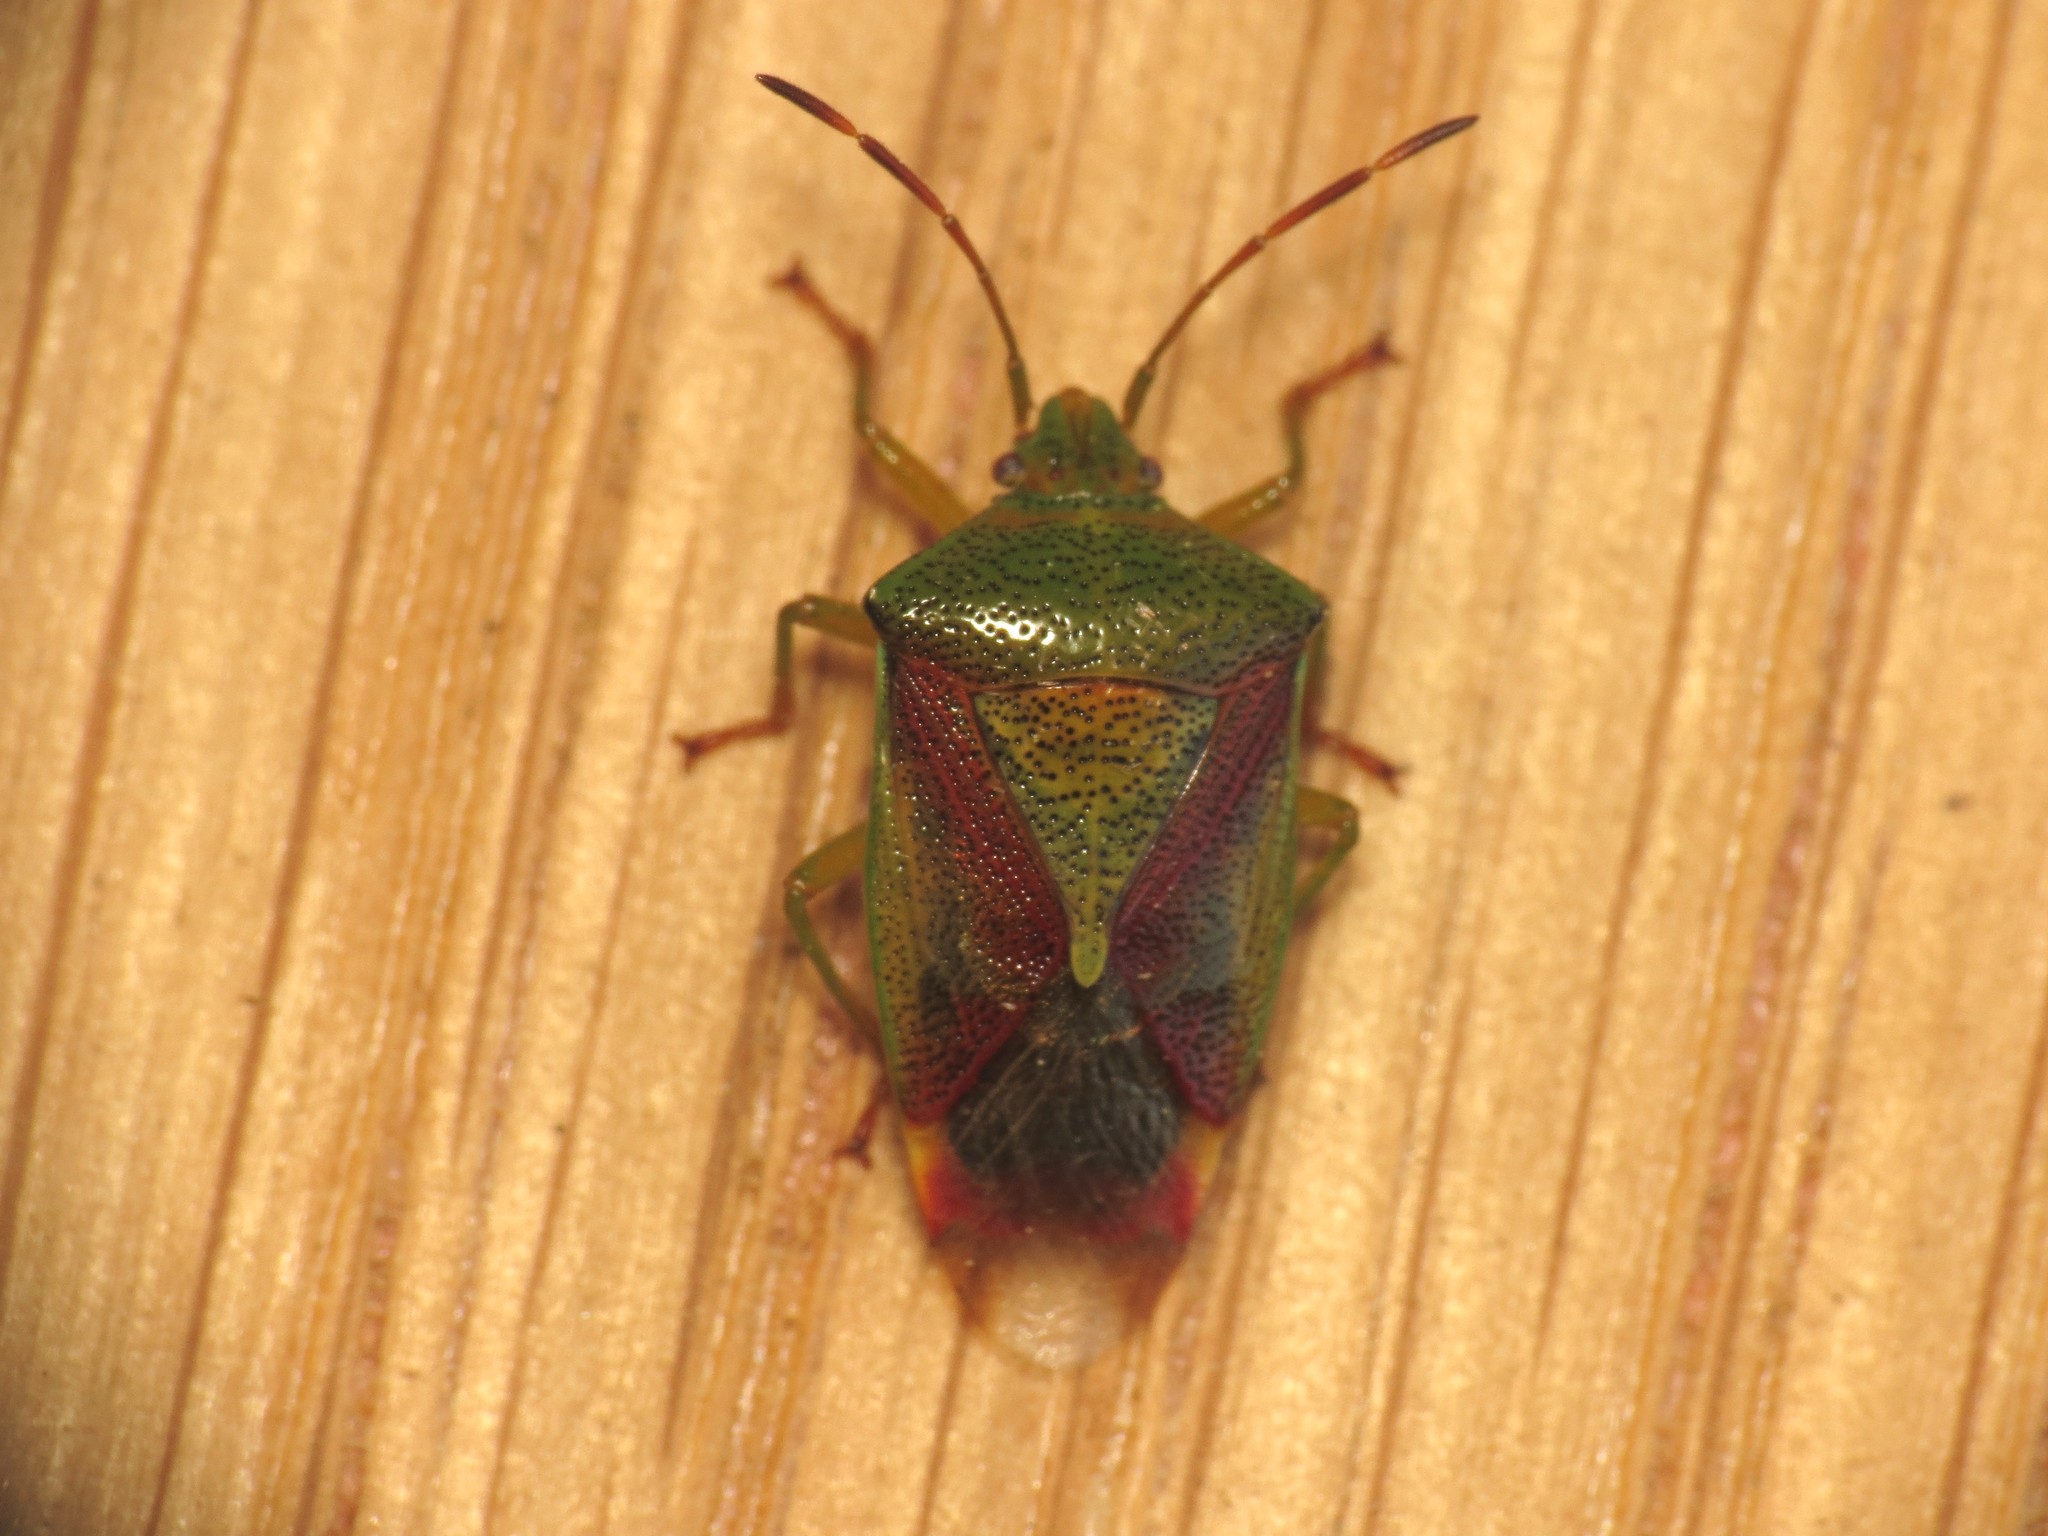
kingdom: Animalia
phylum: Arthropoda
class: Insecta
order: Hemiptera
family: Acanthosomatidae
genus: Elasmostethus
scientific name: Elasmostethus interstinctus
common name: Birch shieldbug
